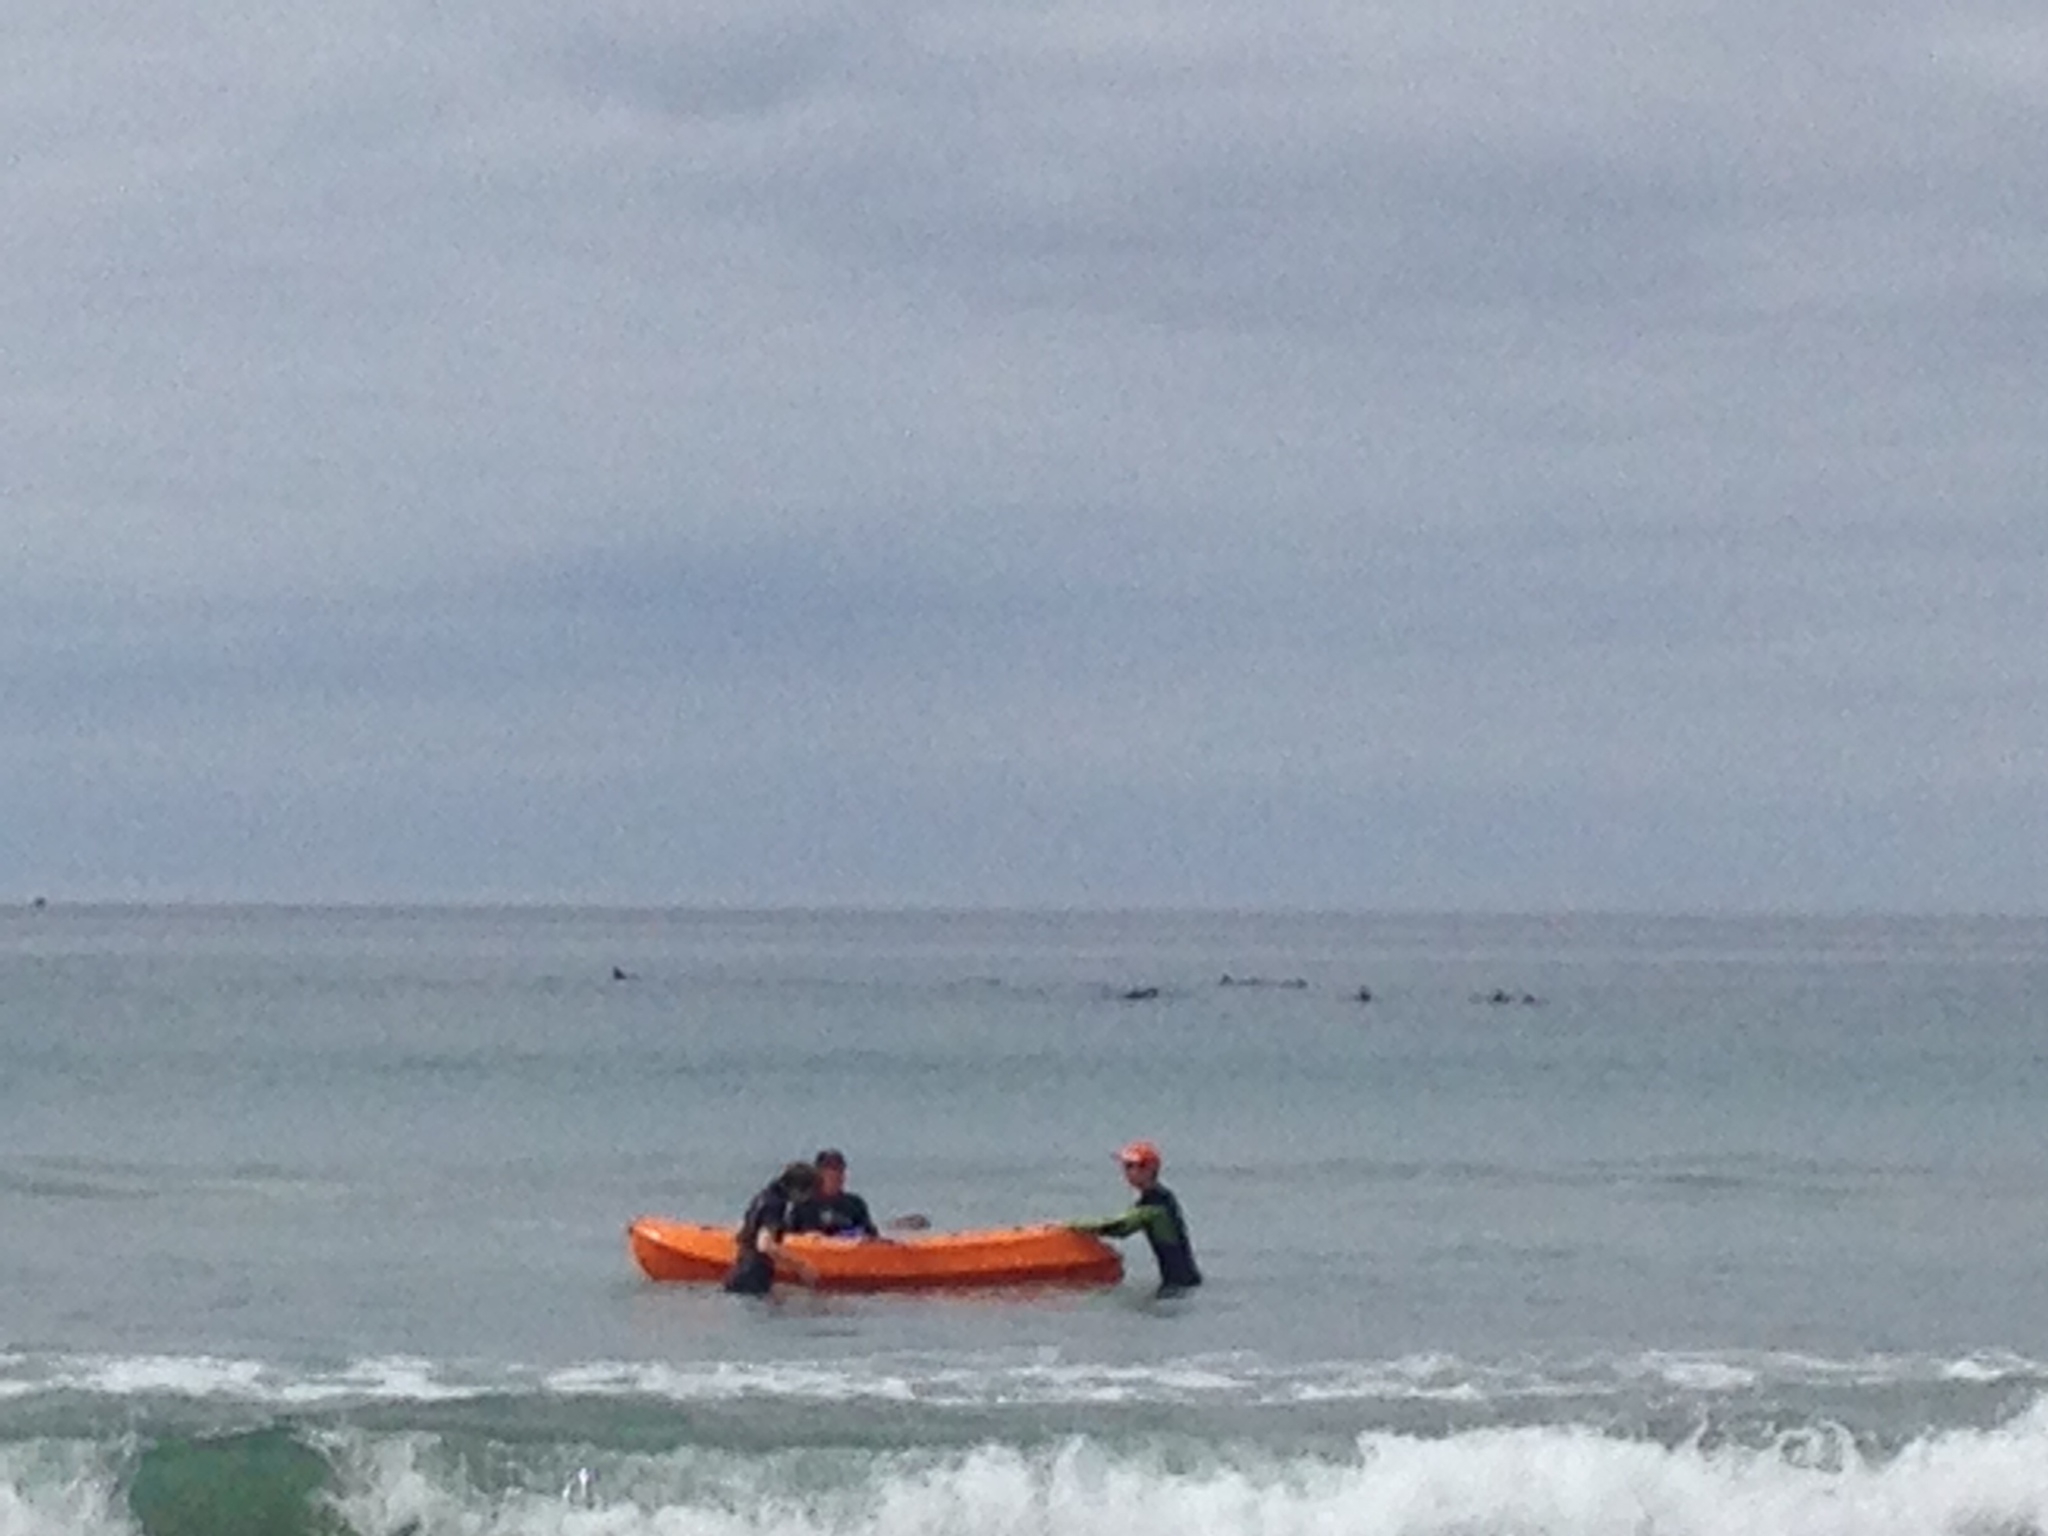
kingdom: Animalia
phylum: Chordata
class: Mammalia
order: Cetacea
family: Delphinidae
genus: Delphinus
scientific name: Delphinus delphis
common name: Common dolphin
